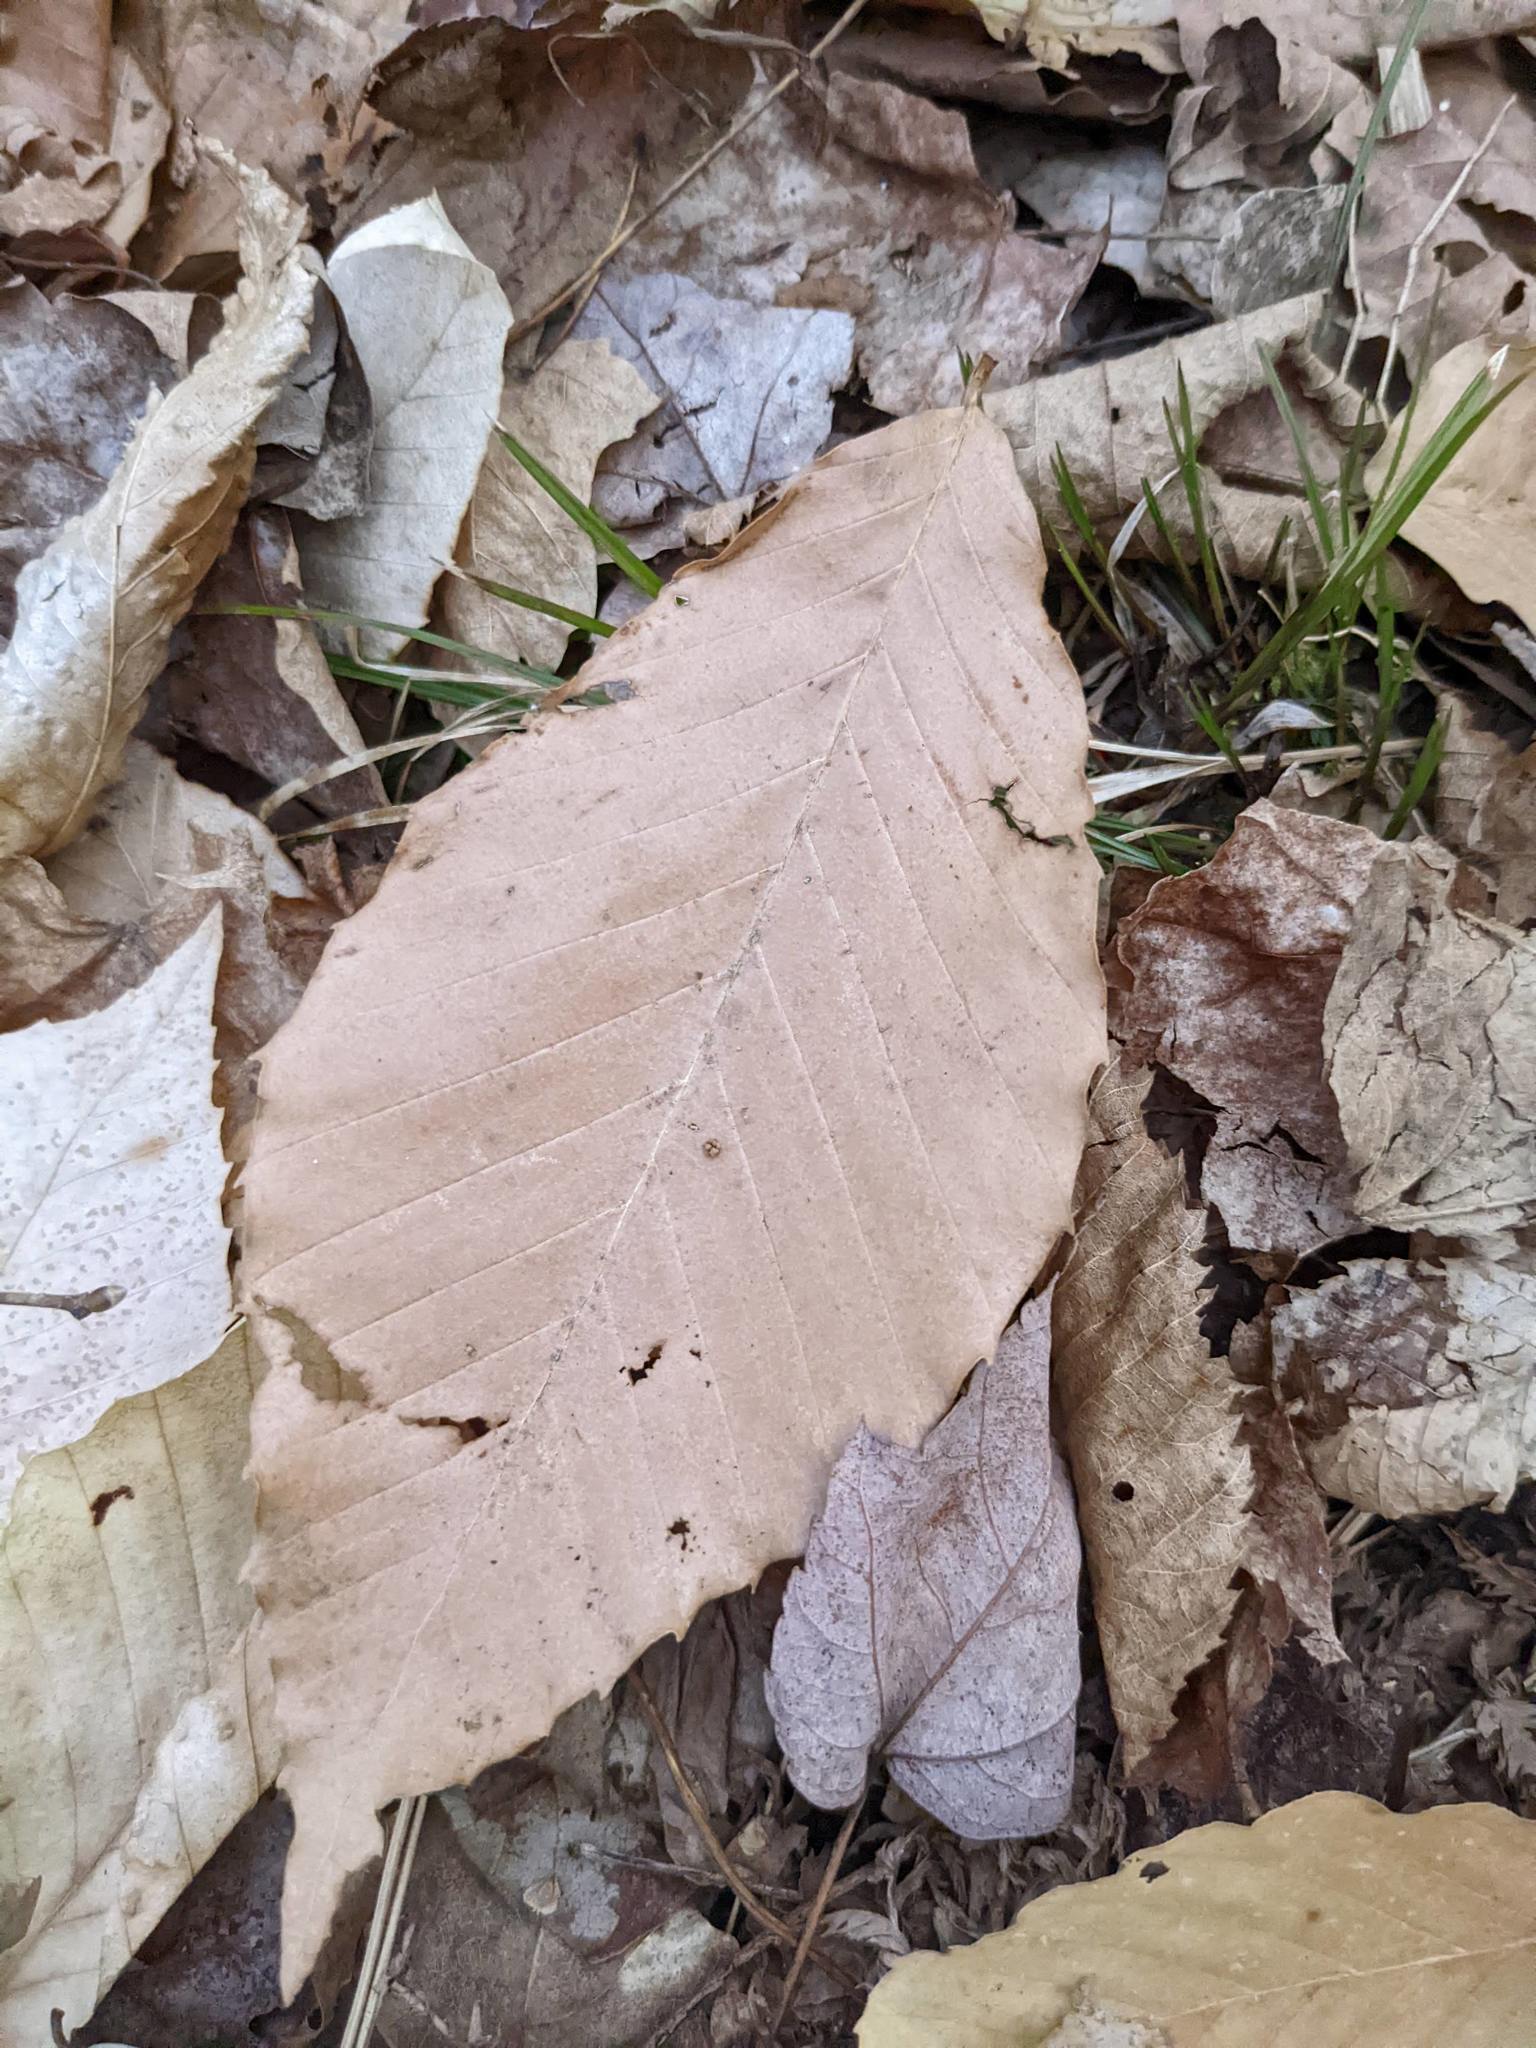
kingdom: Plantae
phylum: Tracheophyta
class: Magnoliopsida
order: Fagales
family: Fagaceae
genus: Fagus
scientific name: Fagus grandifolia
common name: American beech
